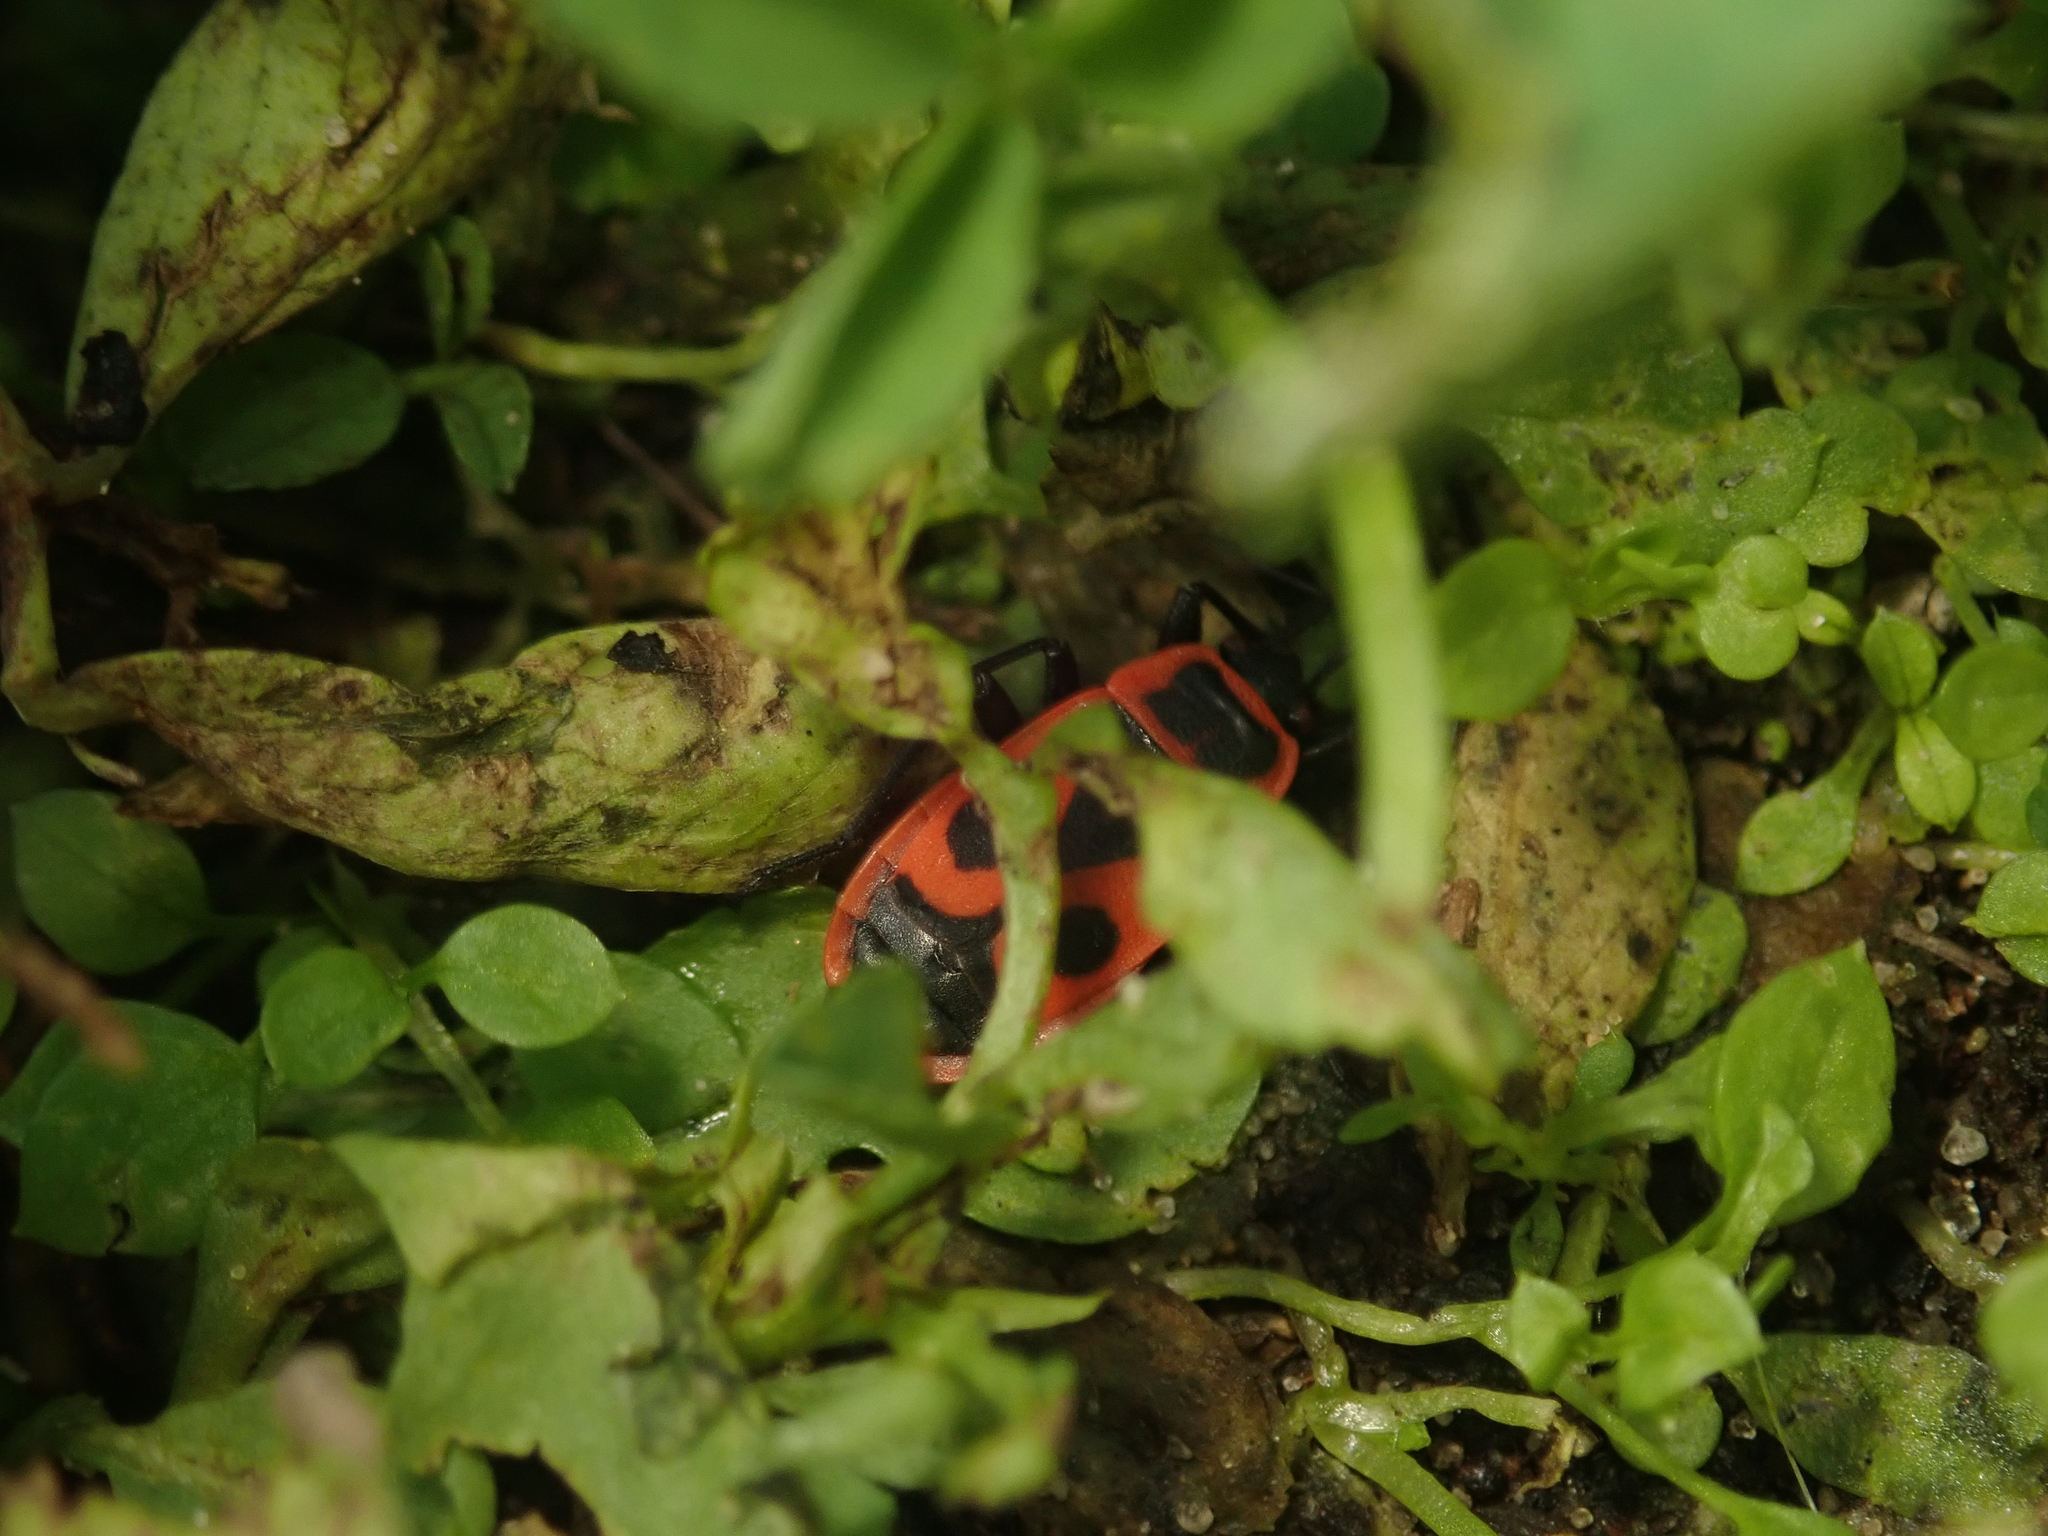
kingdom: Animalia
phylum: Arthropoda
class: Insecta
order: Hemiptera
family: Pyrrhocoridae
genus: Pyrrhocoris
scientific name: Pyrrhocoris apterus
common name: Firebug
